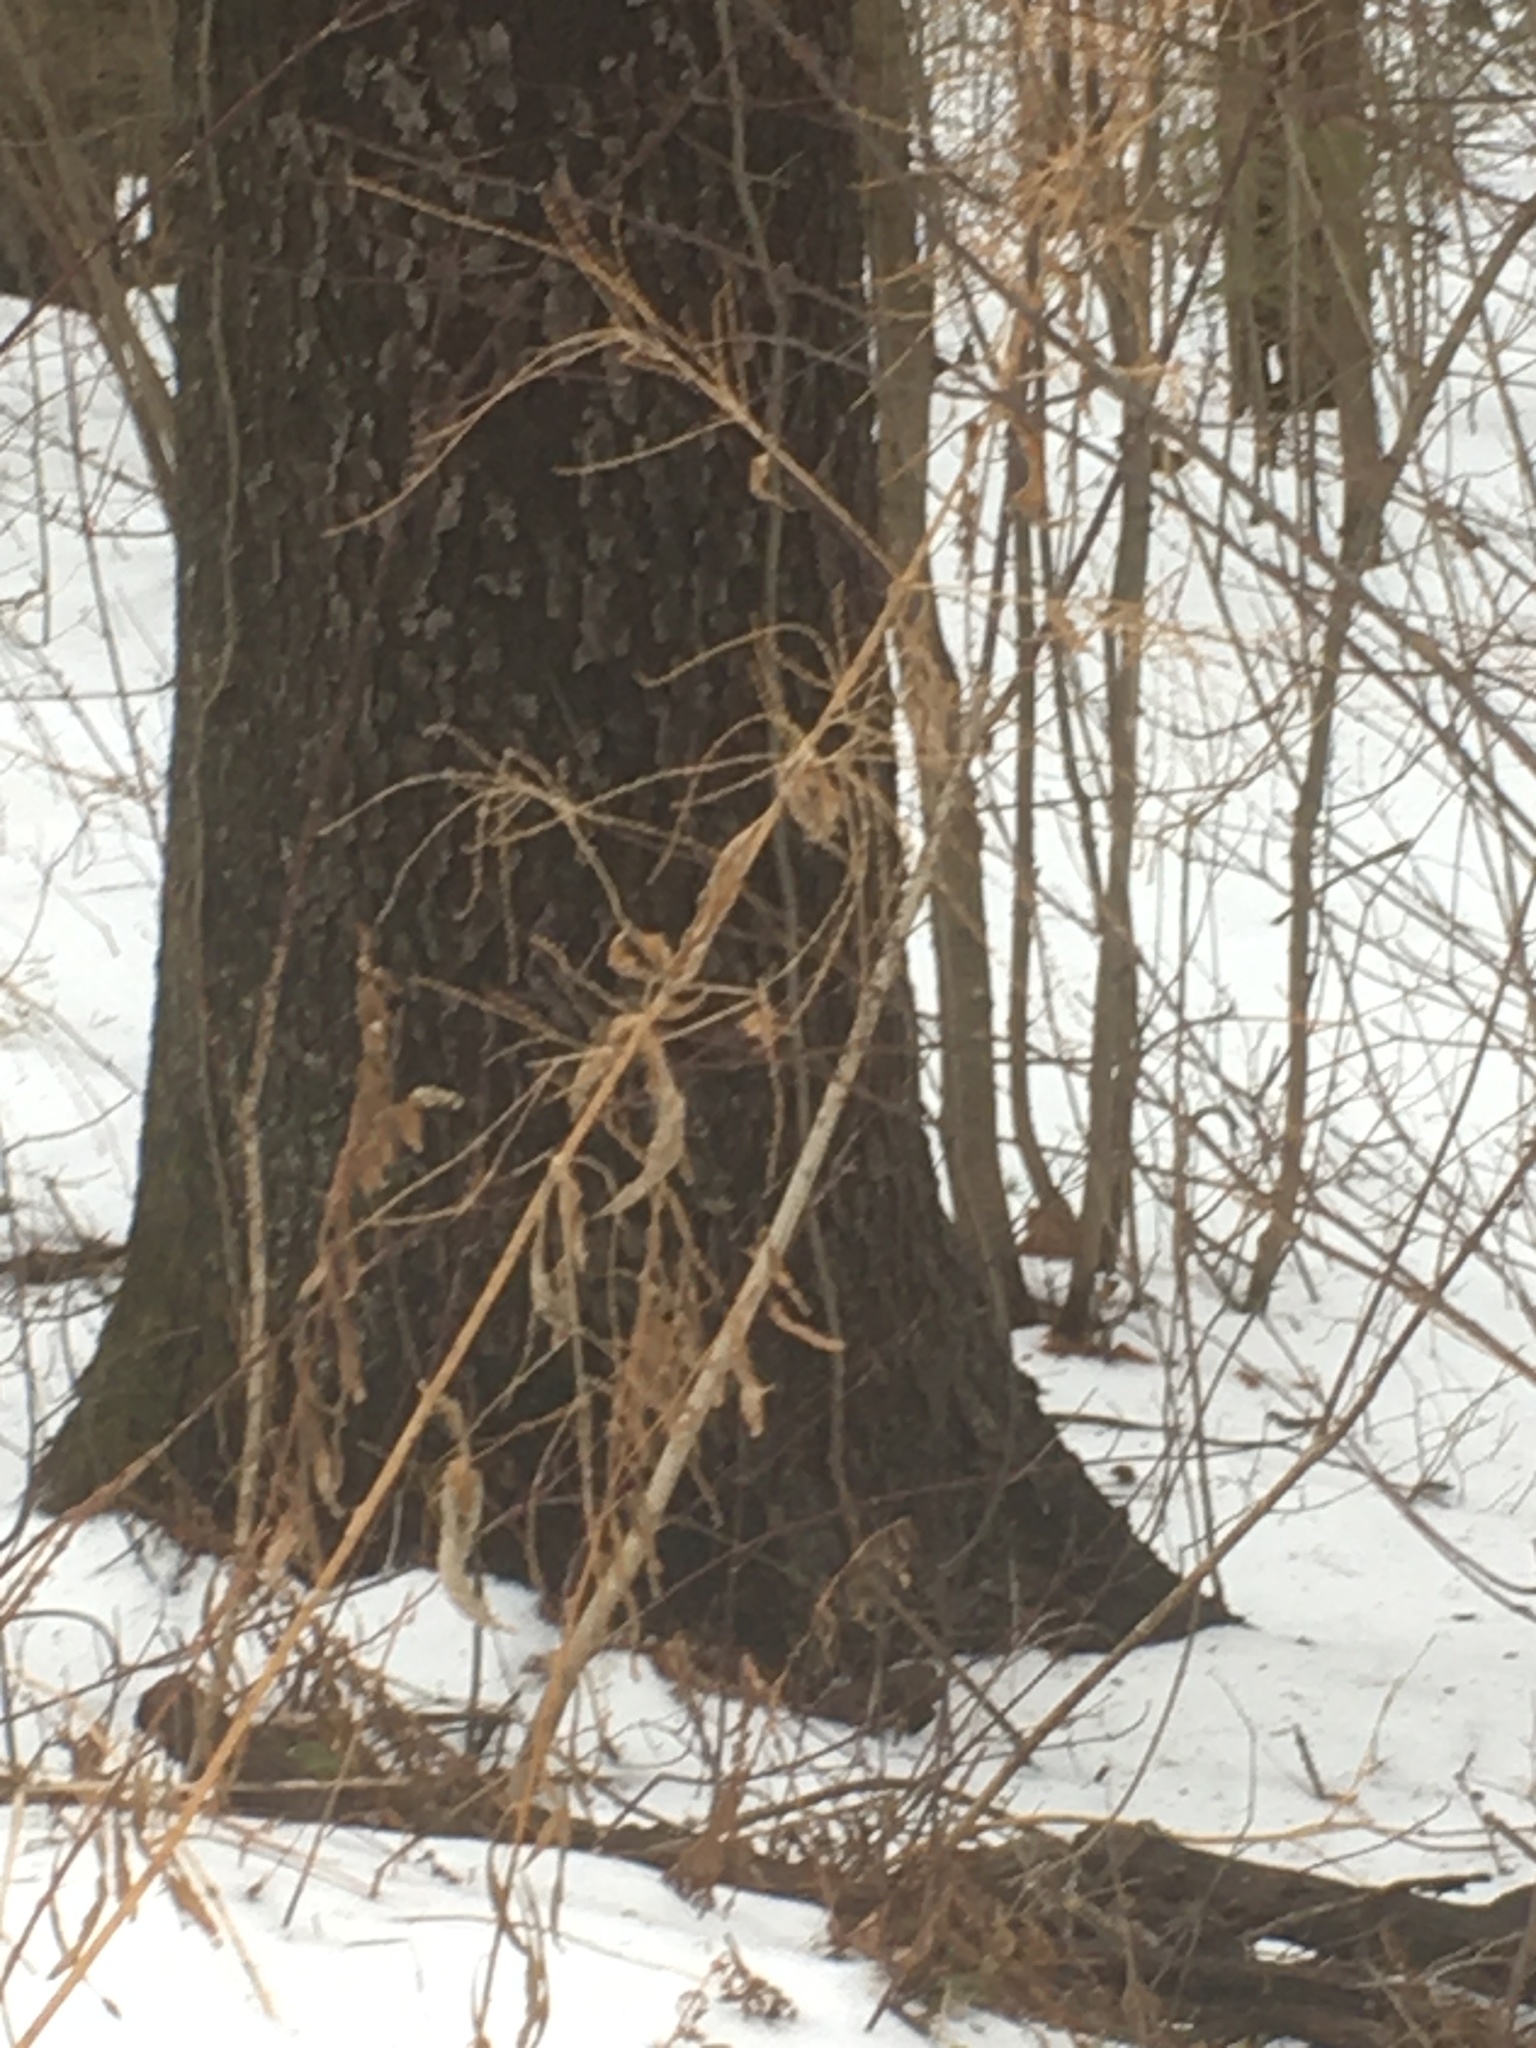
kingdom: Plantae
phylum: Tracheophyta
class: Magnoliopsida
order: Lamiales
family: Verbenaceae
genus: Verbena
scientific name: Verbena urticifolia
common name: Nettle-leaved vervain
